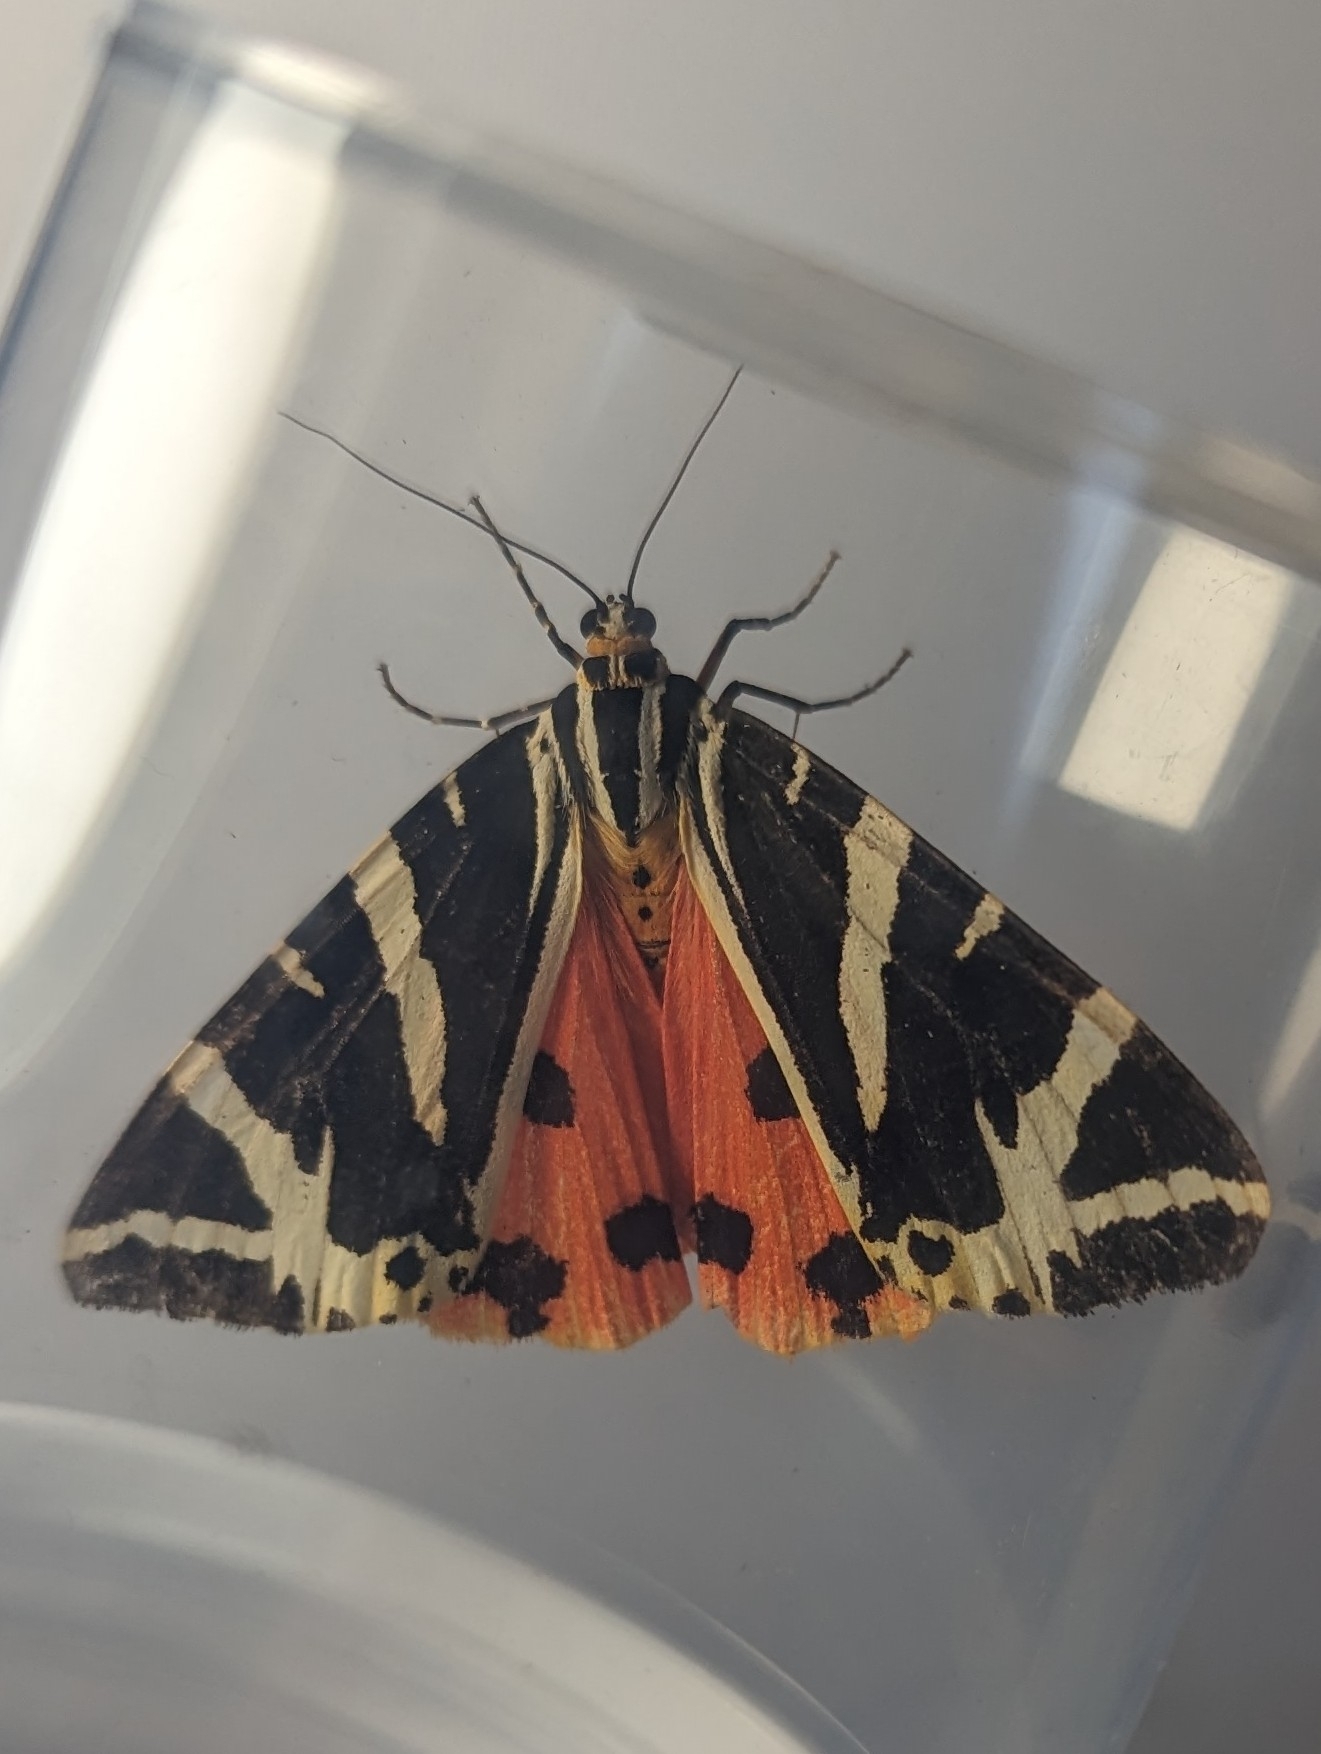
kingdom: Animalia
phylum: Arthropoda
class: Insecta
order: Lepidoptera
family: Erebidae
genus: Euplagia
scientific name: Euplagia quadripunctaria
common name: Jersey tiger
